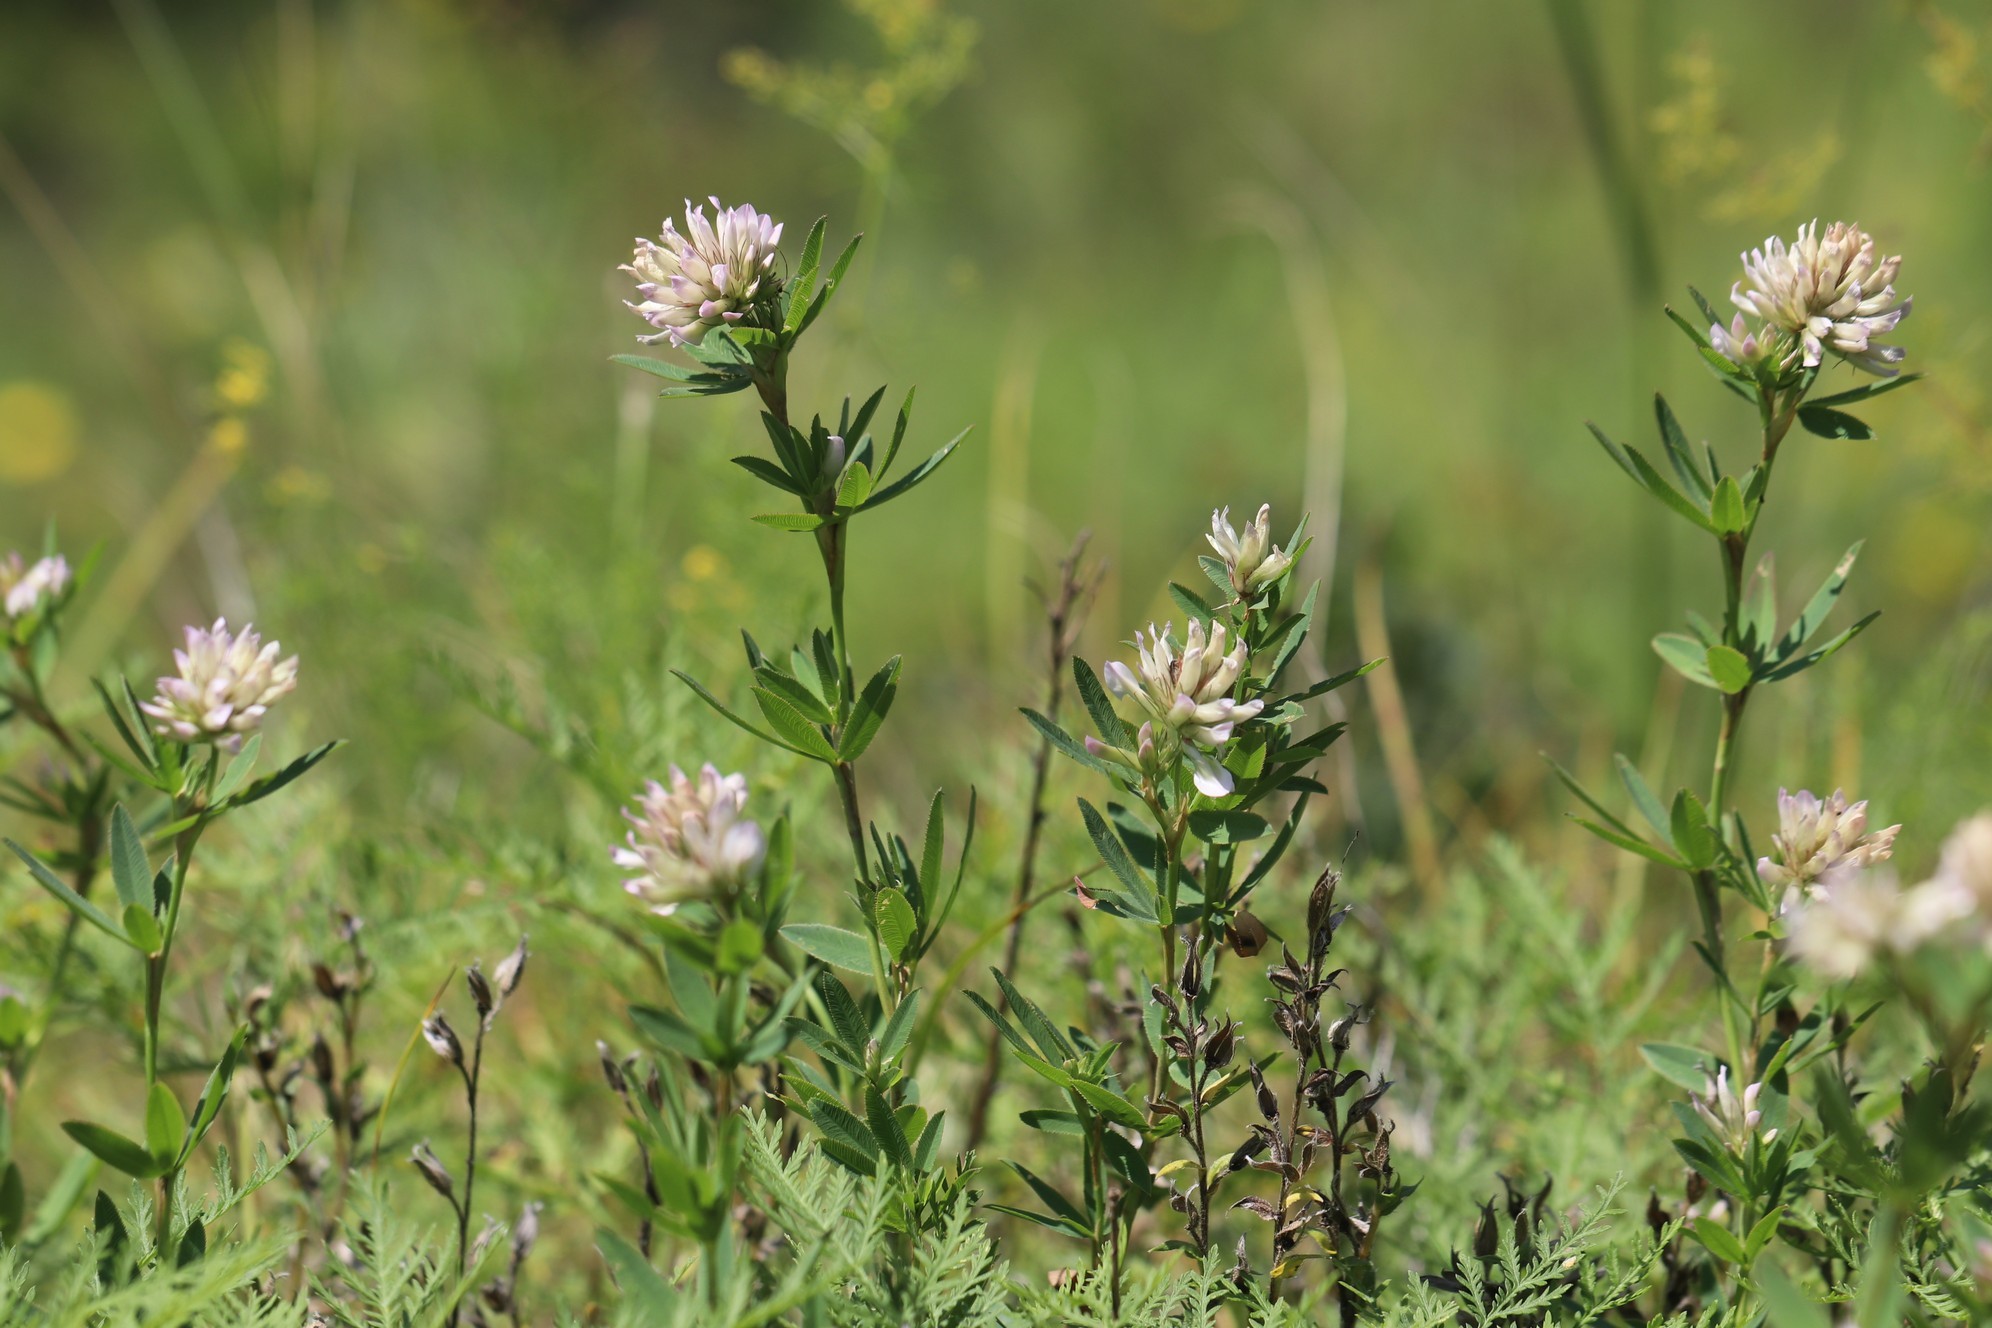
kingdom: Plantae
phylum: Tracheophyta
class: Magnoliopsida
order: Fabales
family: Fabaceae
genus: Trifolium
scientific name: Trifolium lupinaster
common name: Lupine clover
